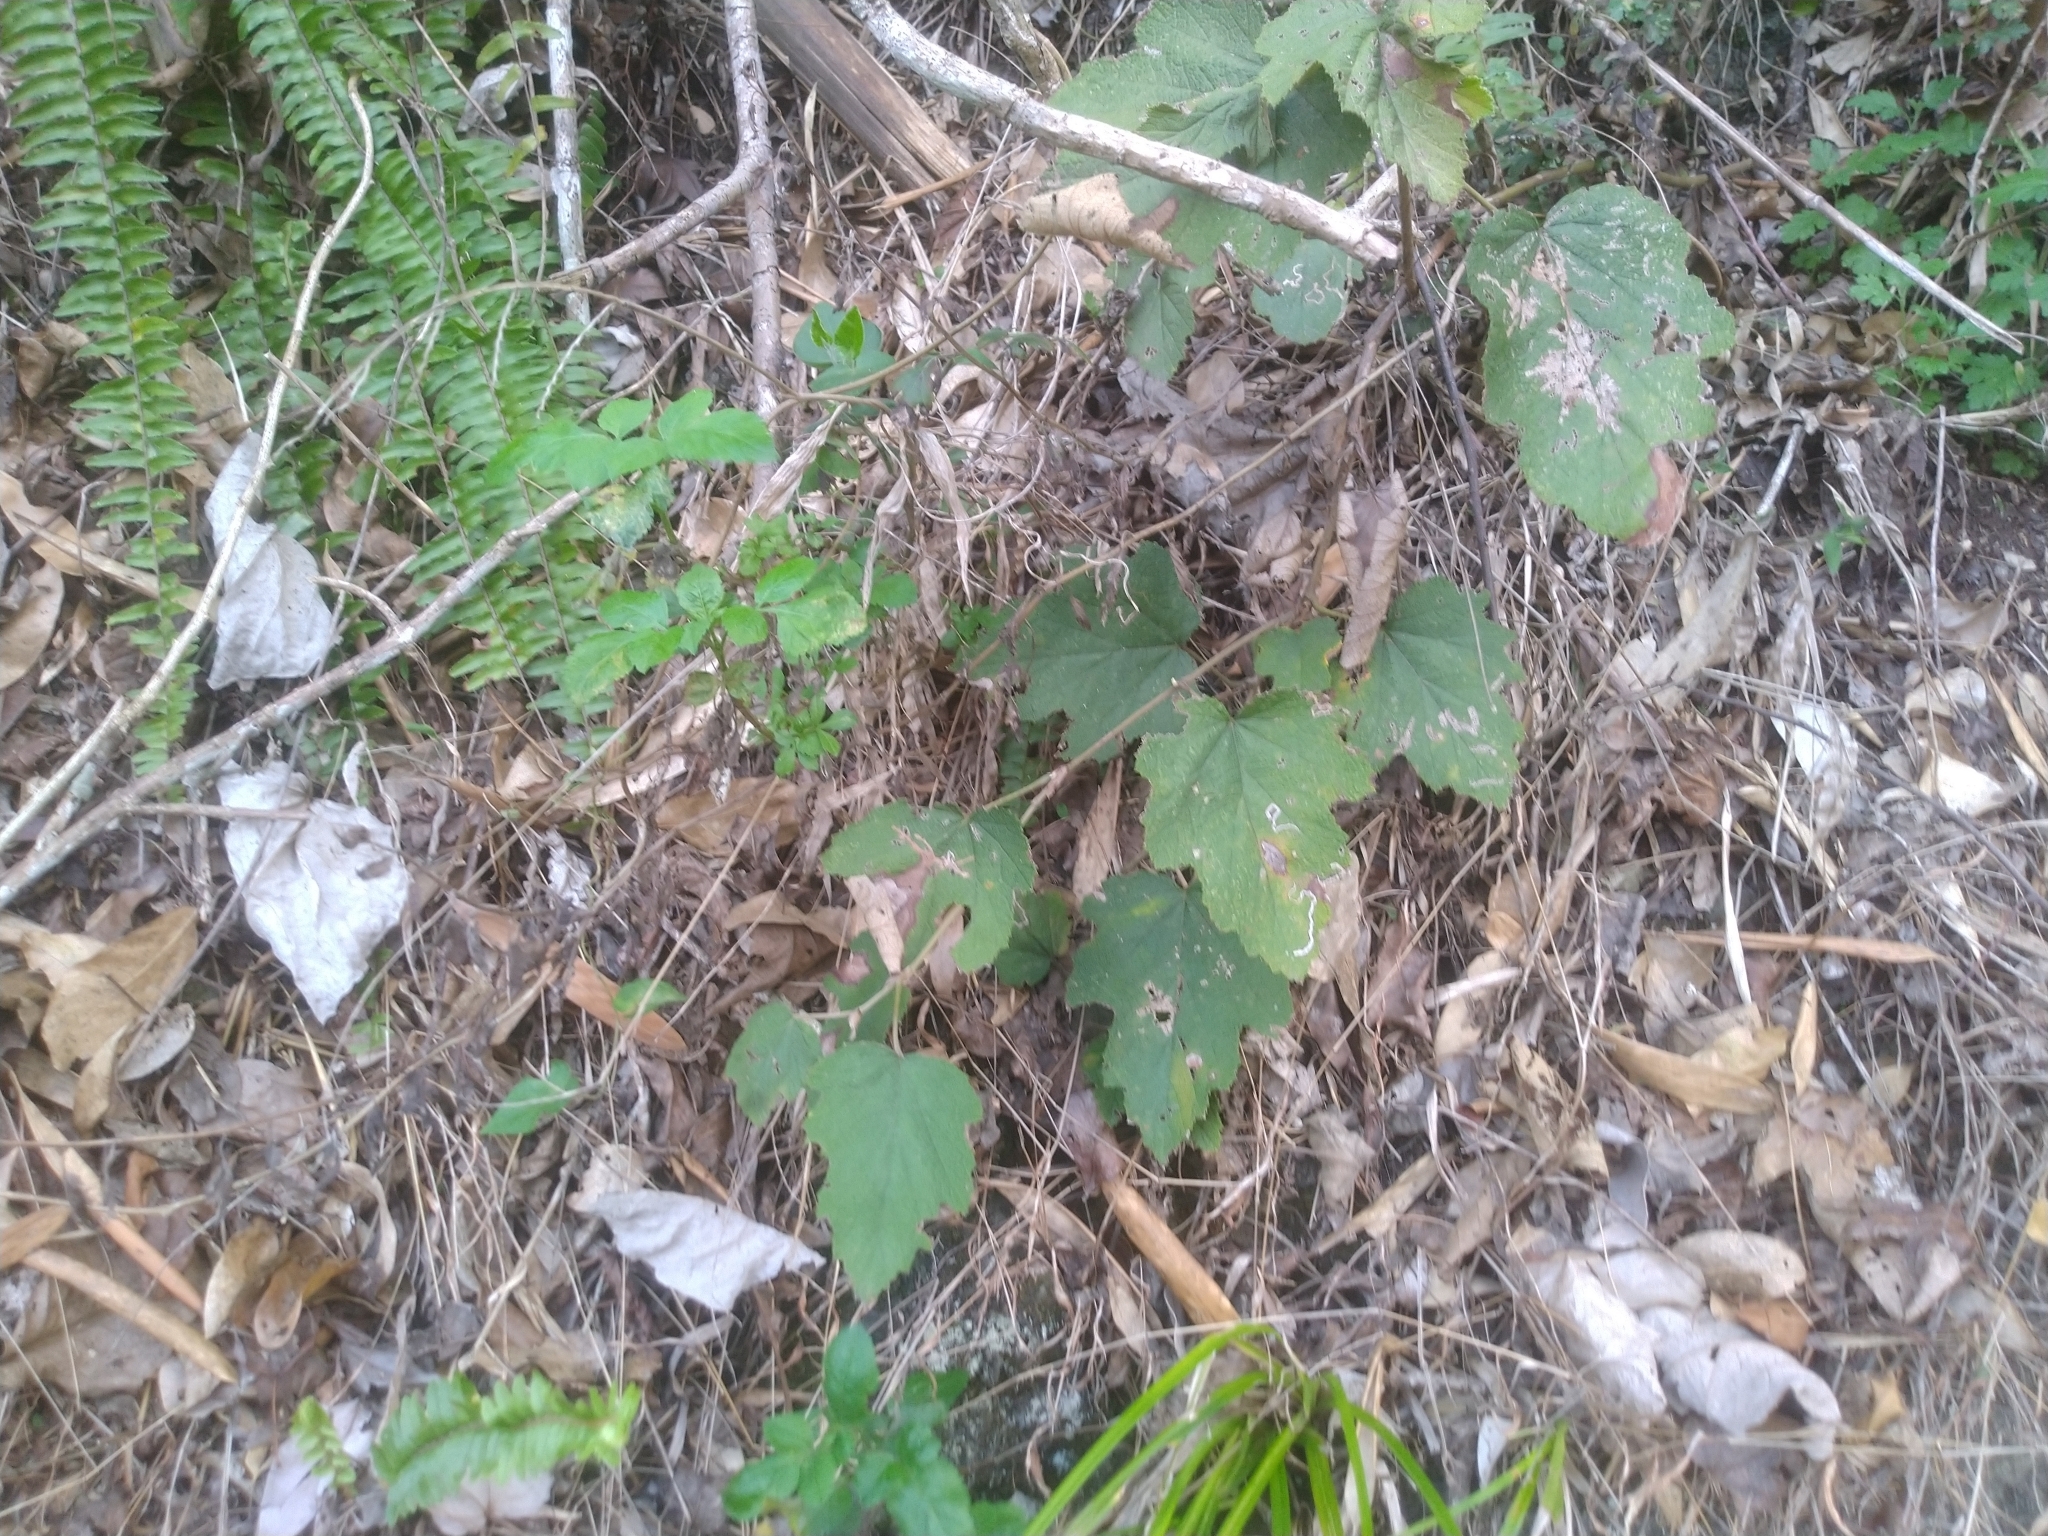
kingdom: Plantae
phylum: Tracheophyta
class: Magnoliopsida
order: Rosales
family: Rosaceae
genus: Rubus
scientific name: Rubus formosensis
